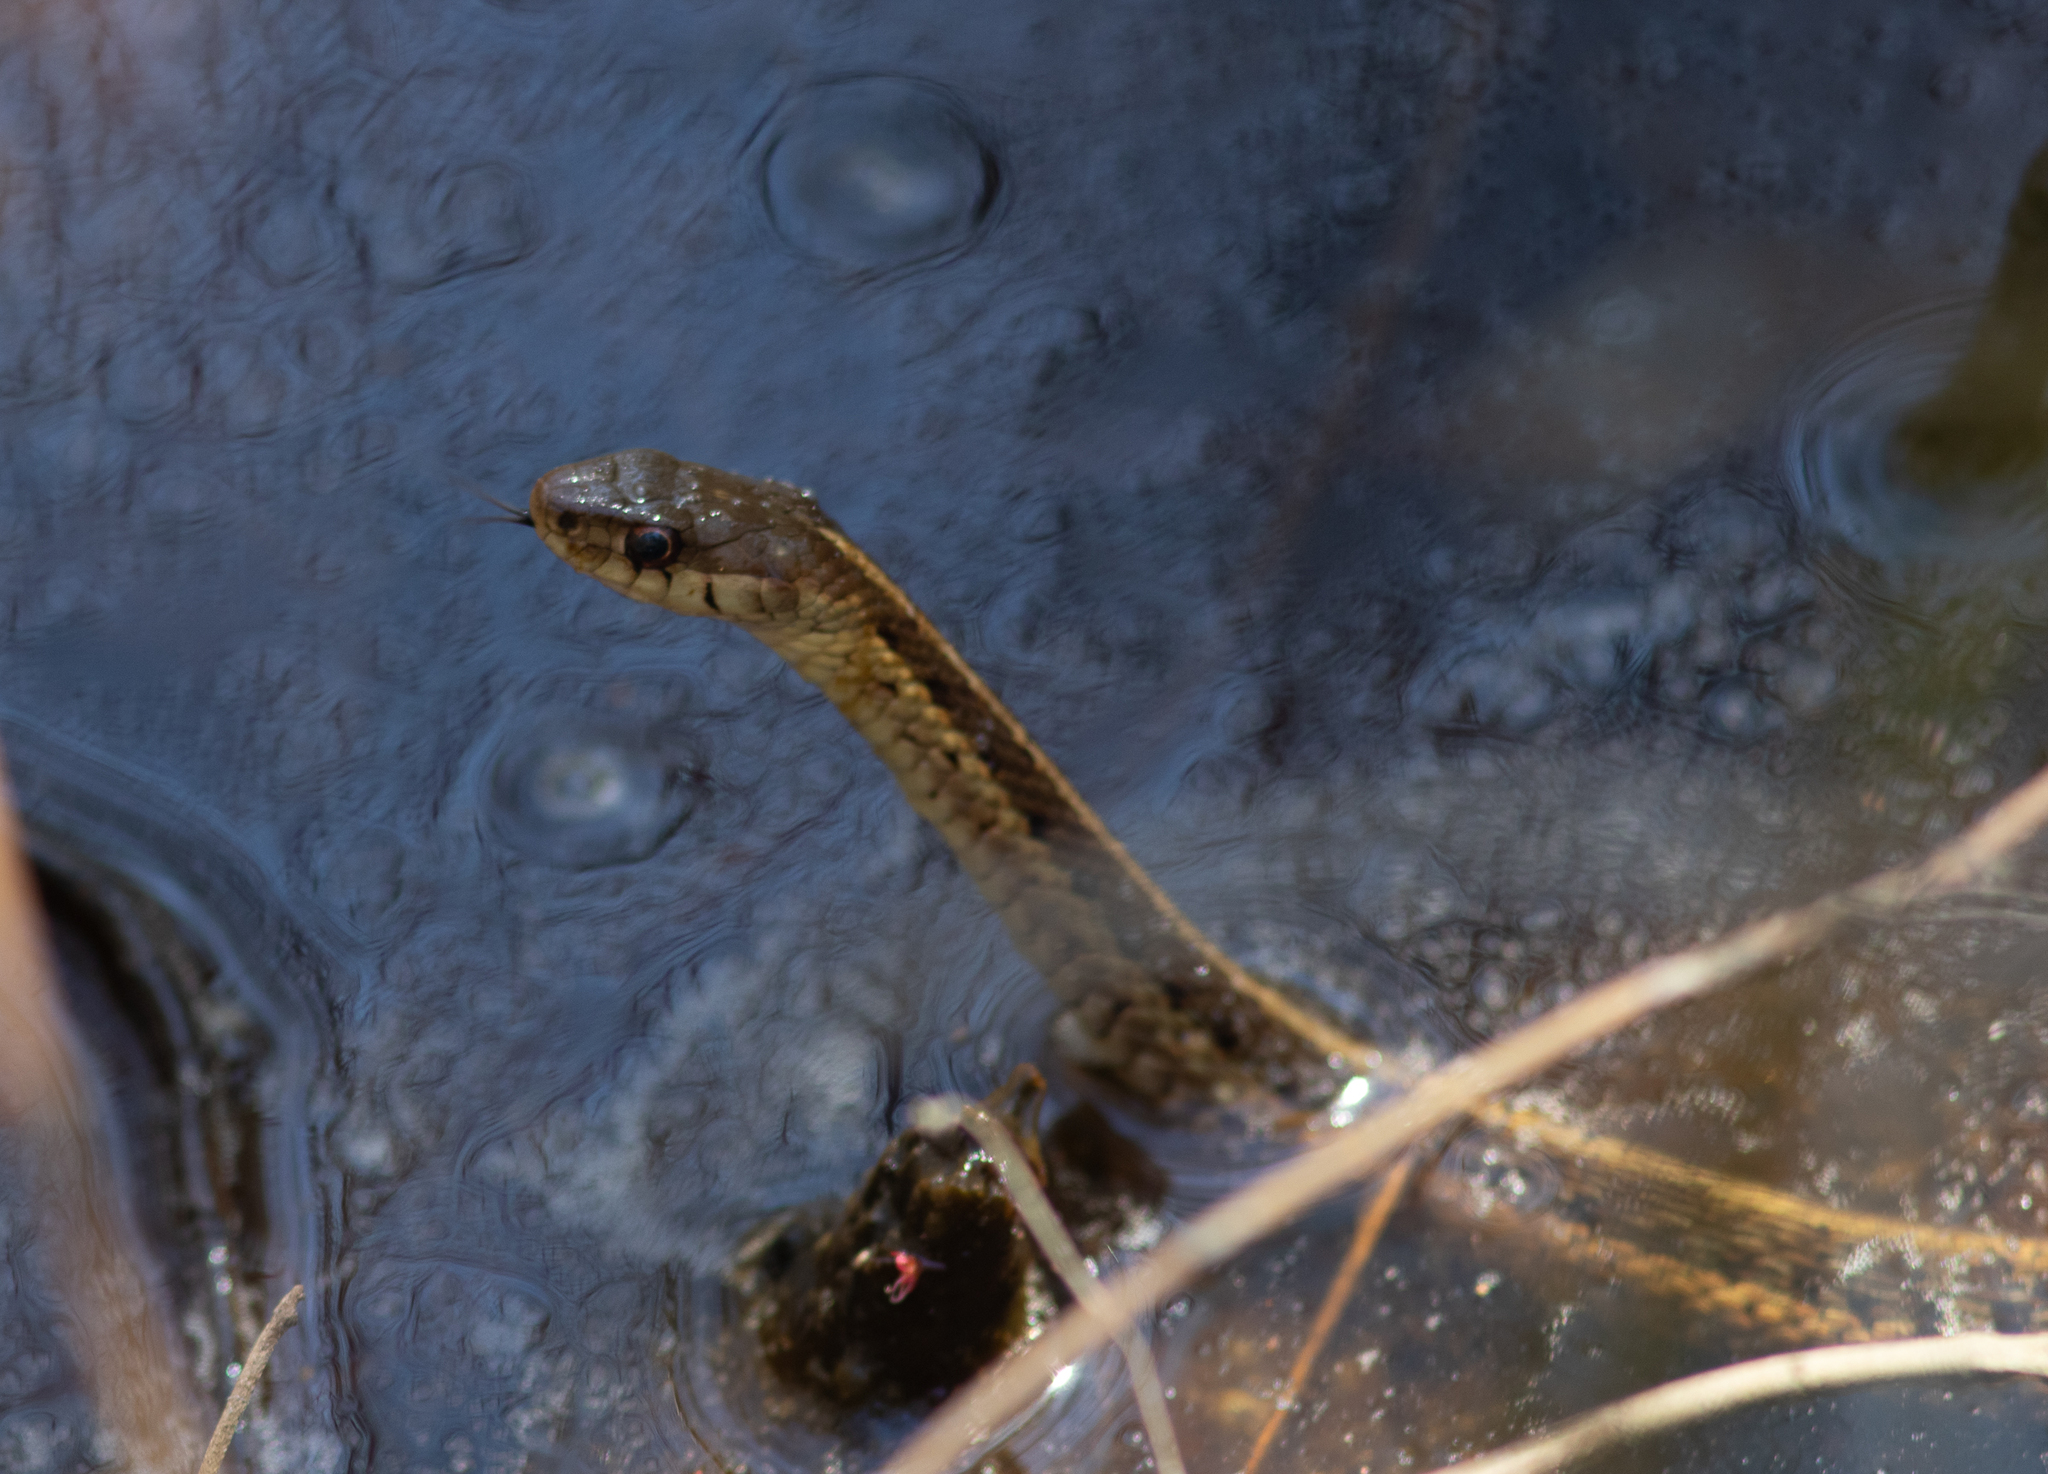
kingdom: Animalia
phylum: Chordata
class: Squamata
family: Colubridae
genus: Thamnophis
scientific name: Thamnophis sirtalis
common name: Common garter snake
